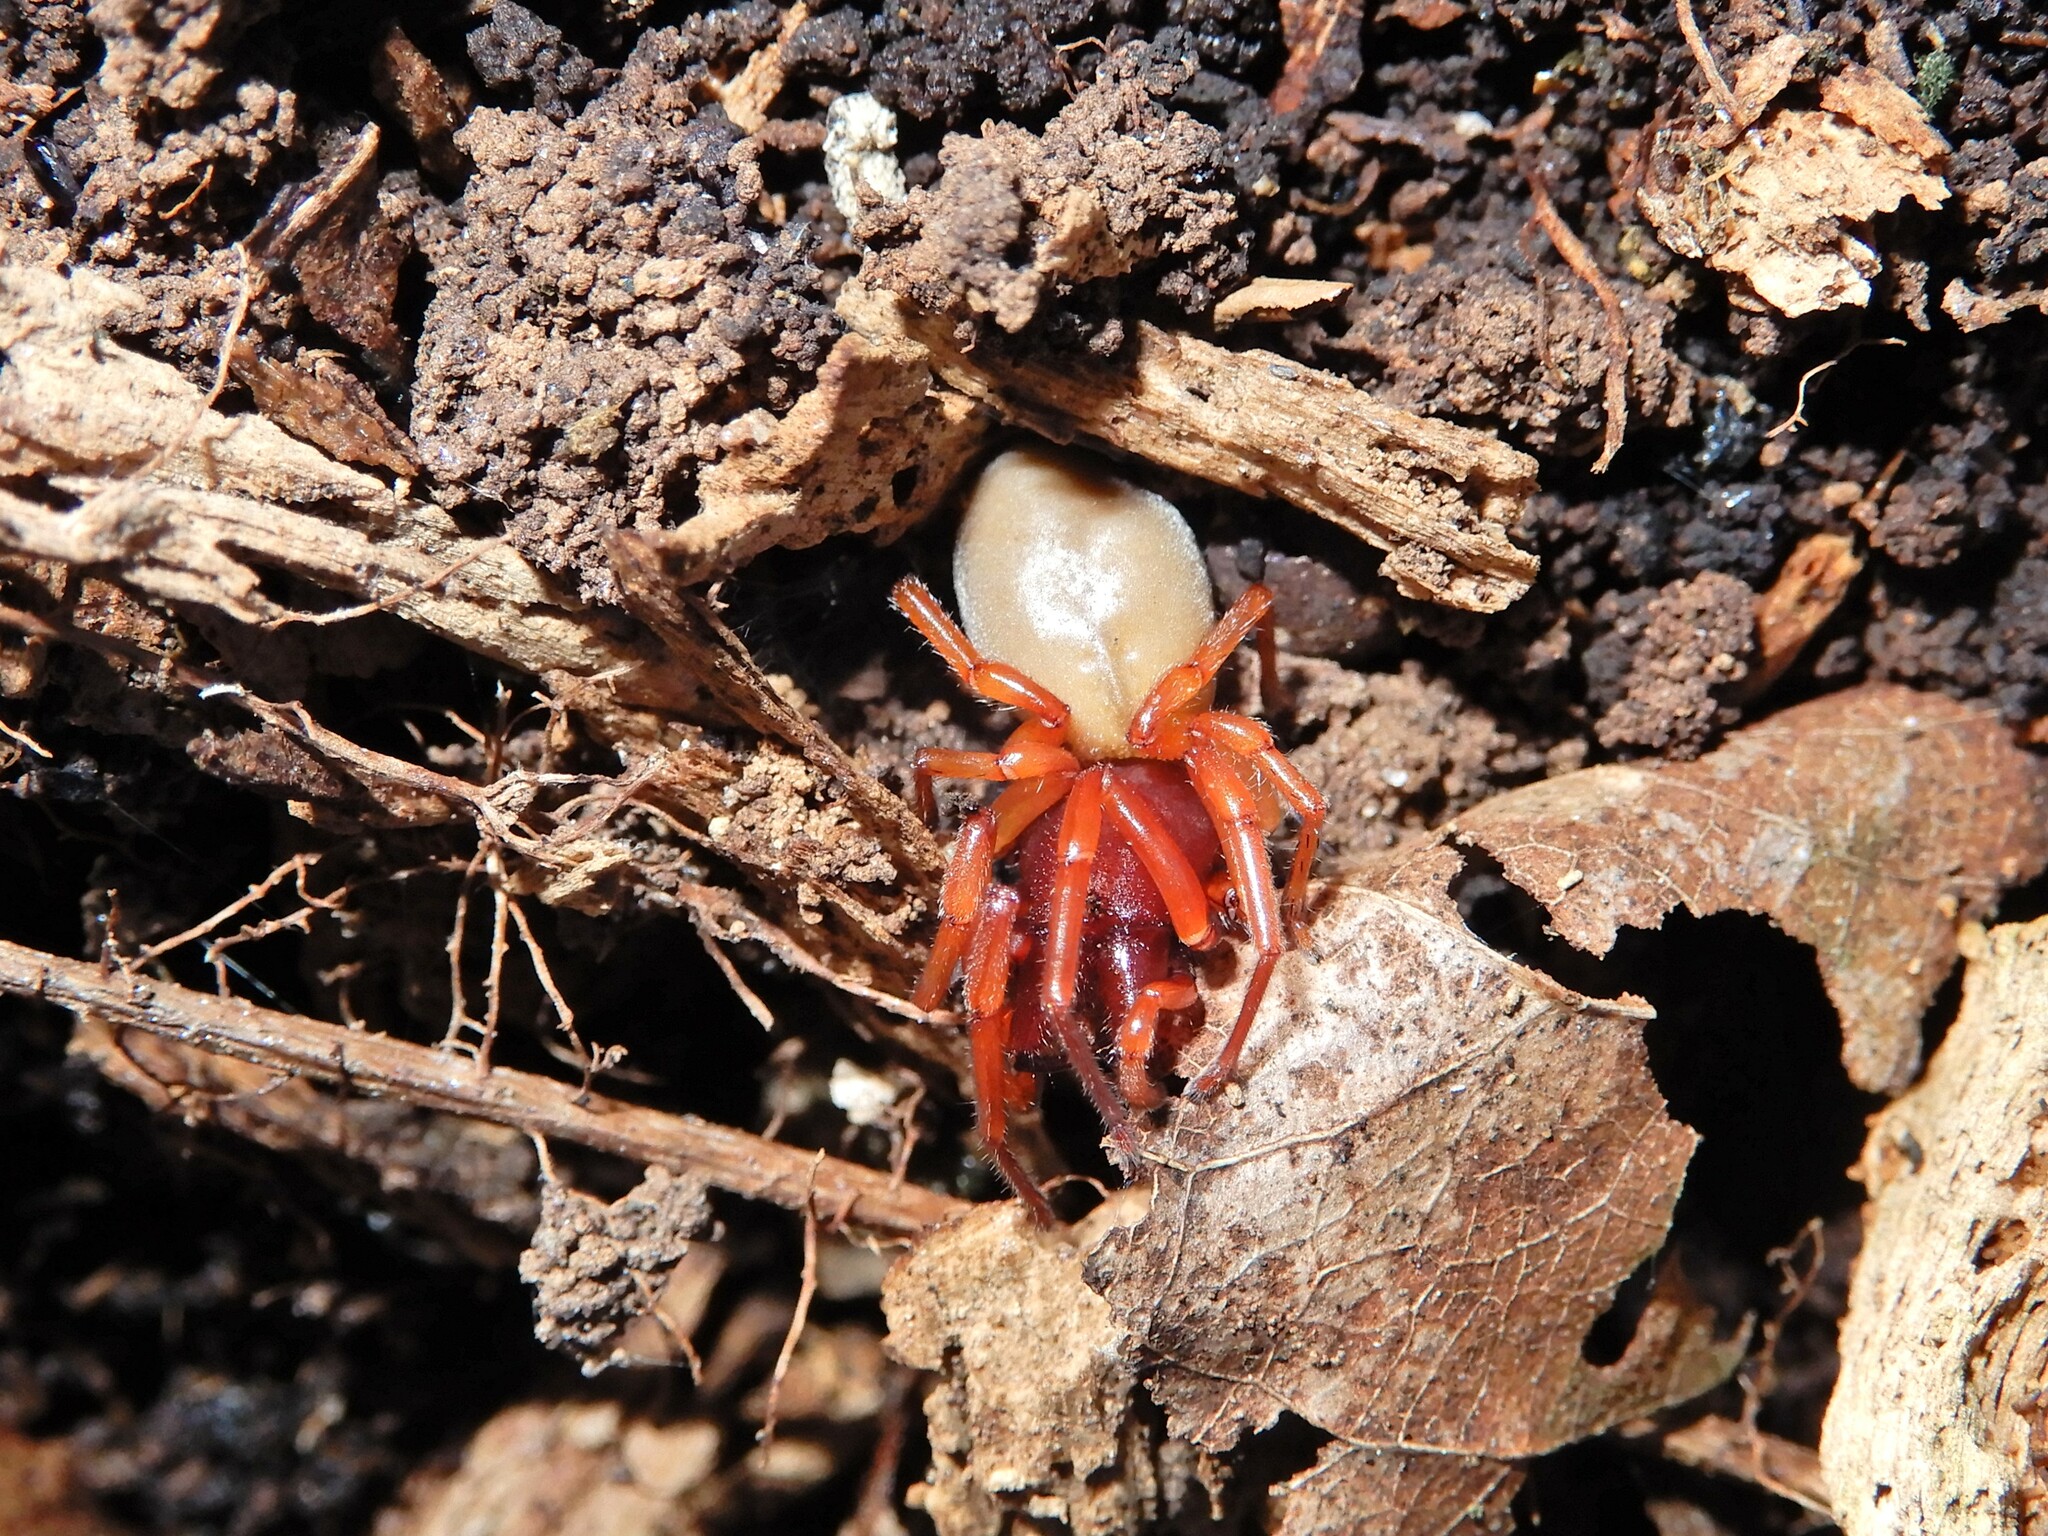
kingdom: Animalia
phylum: Arthropoda
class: Arachnida
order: Araneae
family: Dysderidae
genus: Dysdera
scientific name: Dysdera crocata
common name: Woodlouse spider
